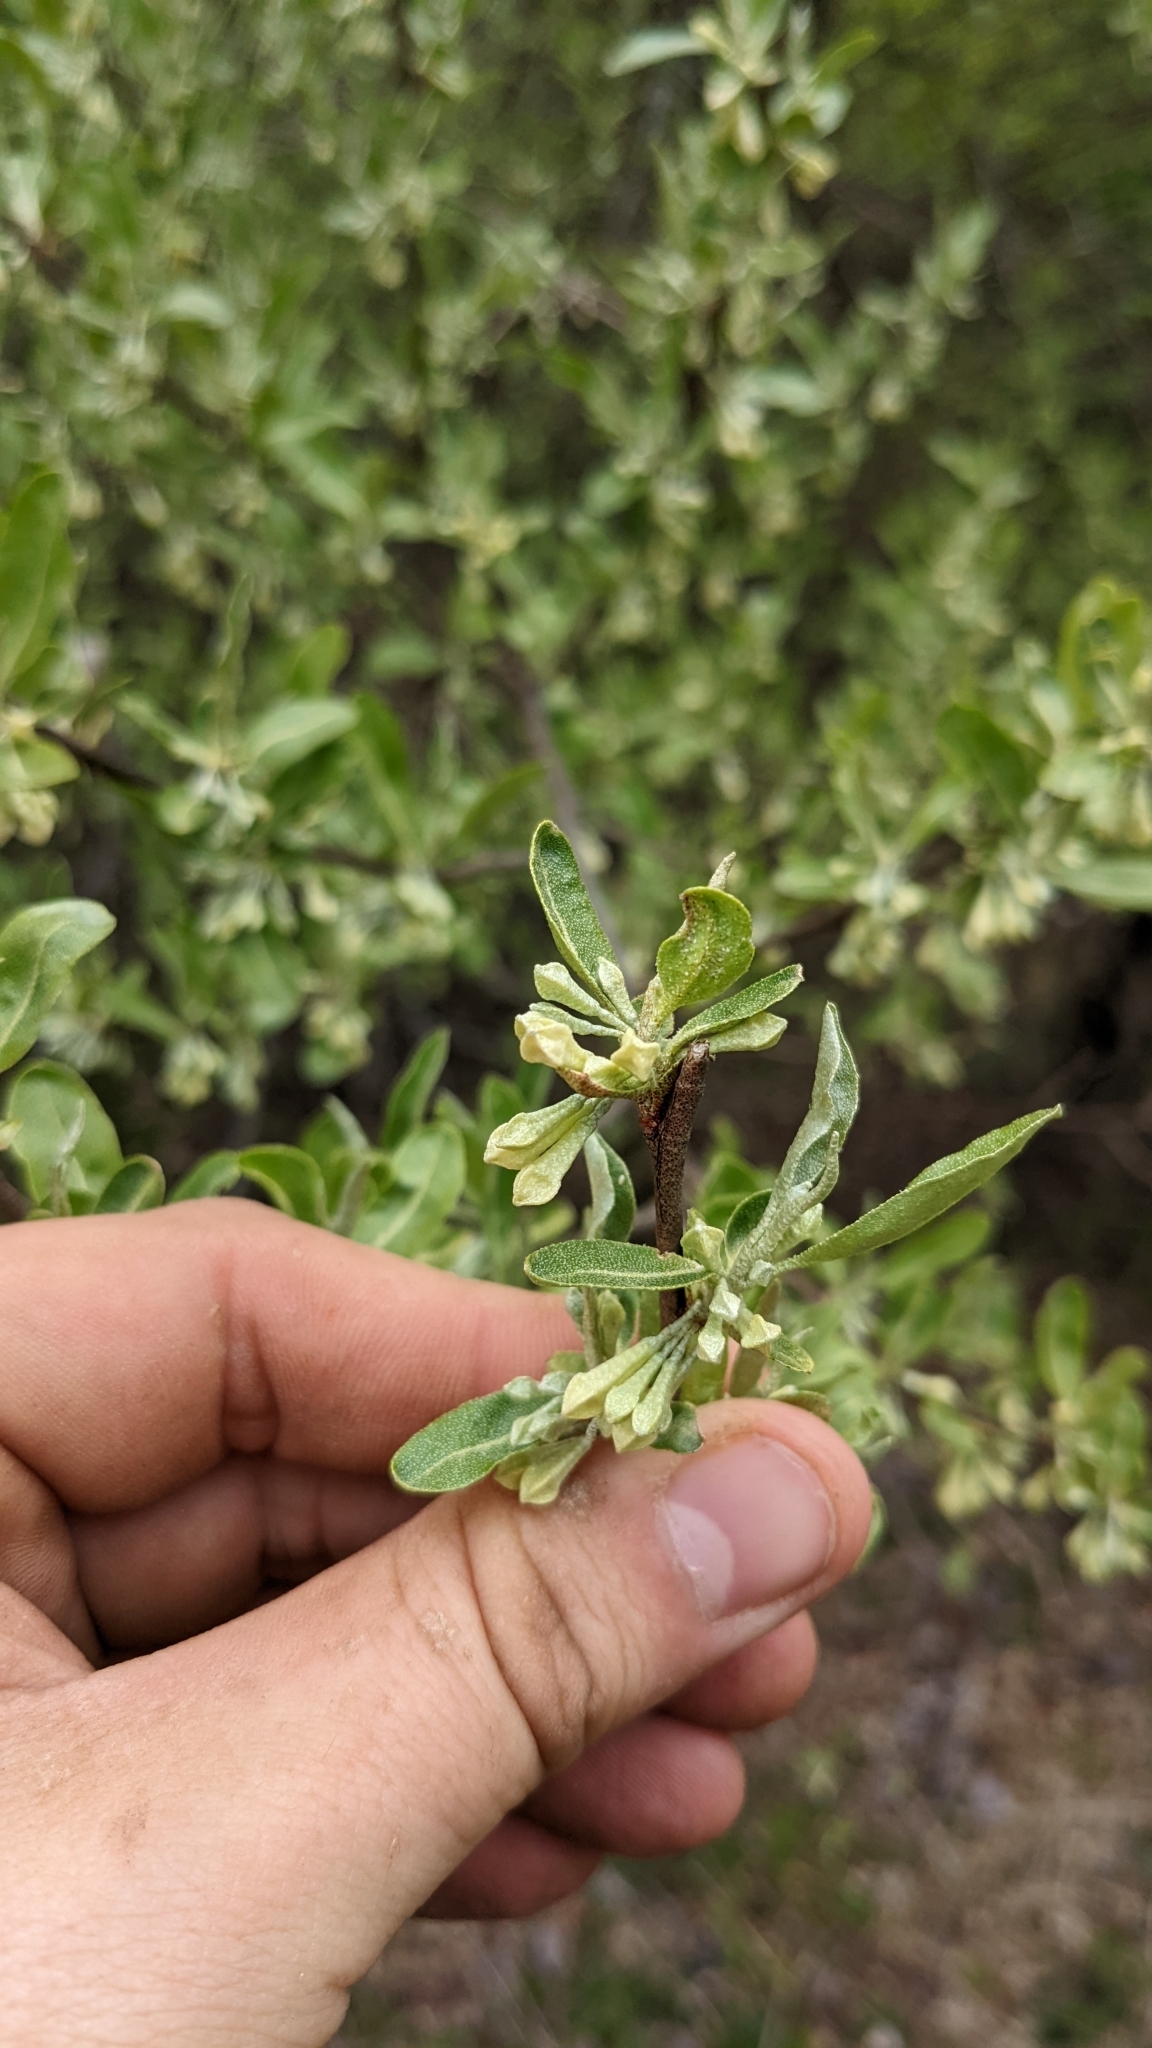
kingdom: Plantae
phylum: Tracheophyta
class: Magnoliopsida
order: Rosales
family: Elaeagnaceae
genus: Elaeagnus
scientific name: Elaeagnus umbellata
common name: Autumn olive
